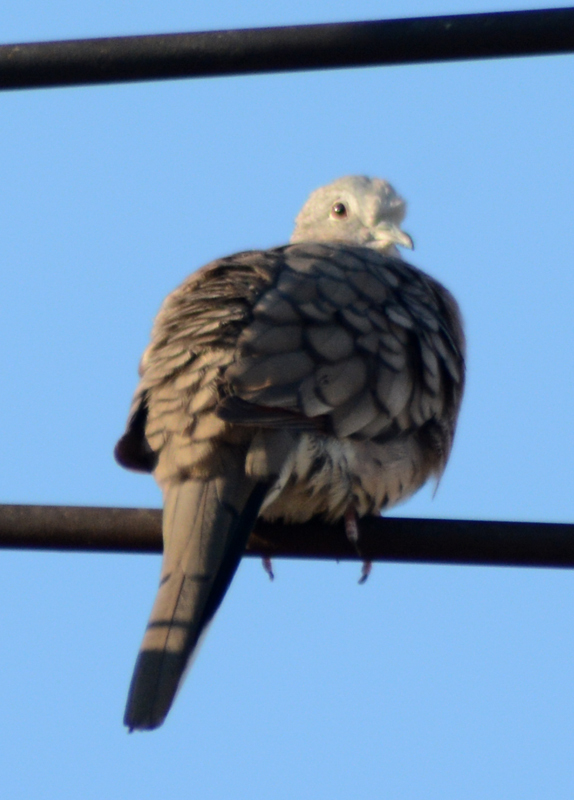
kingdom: Animalia
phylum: Chordata
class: Aves
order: Columbiformes
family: Columbidae
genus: Columbina
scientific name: Columbina inca
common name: Inca dove
